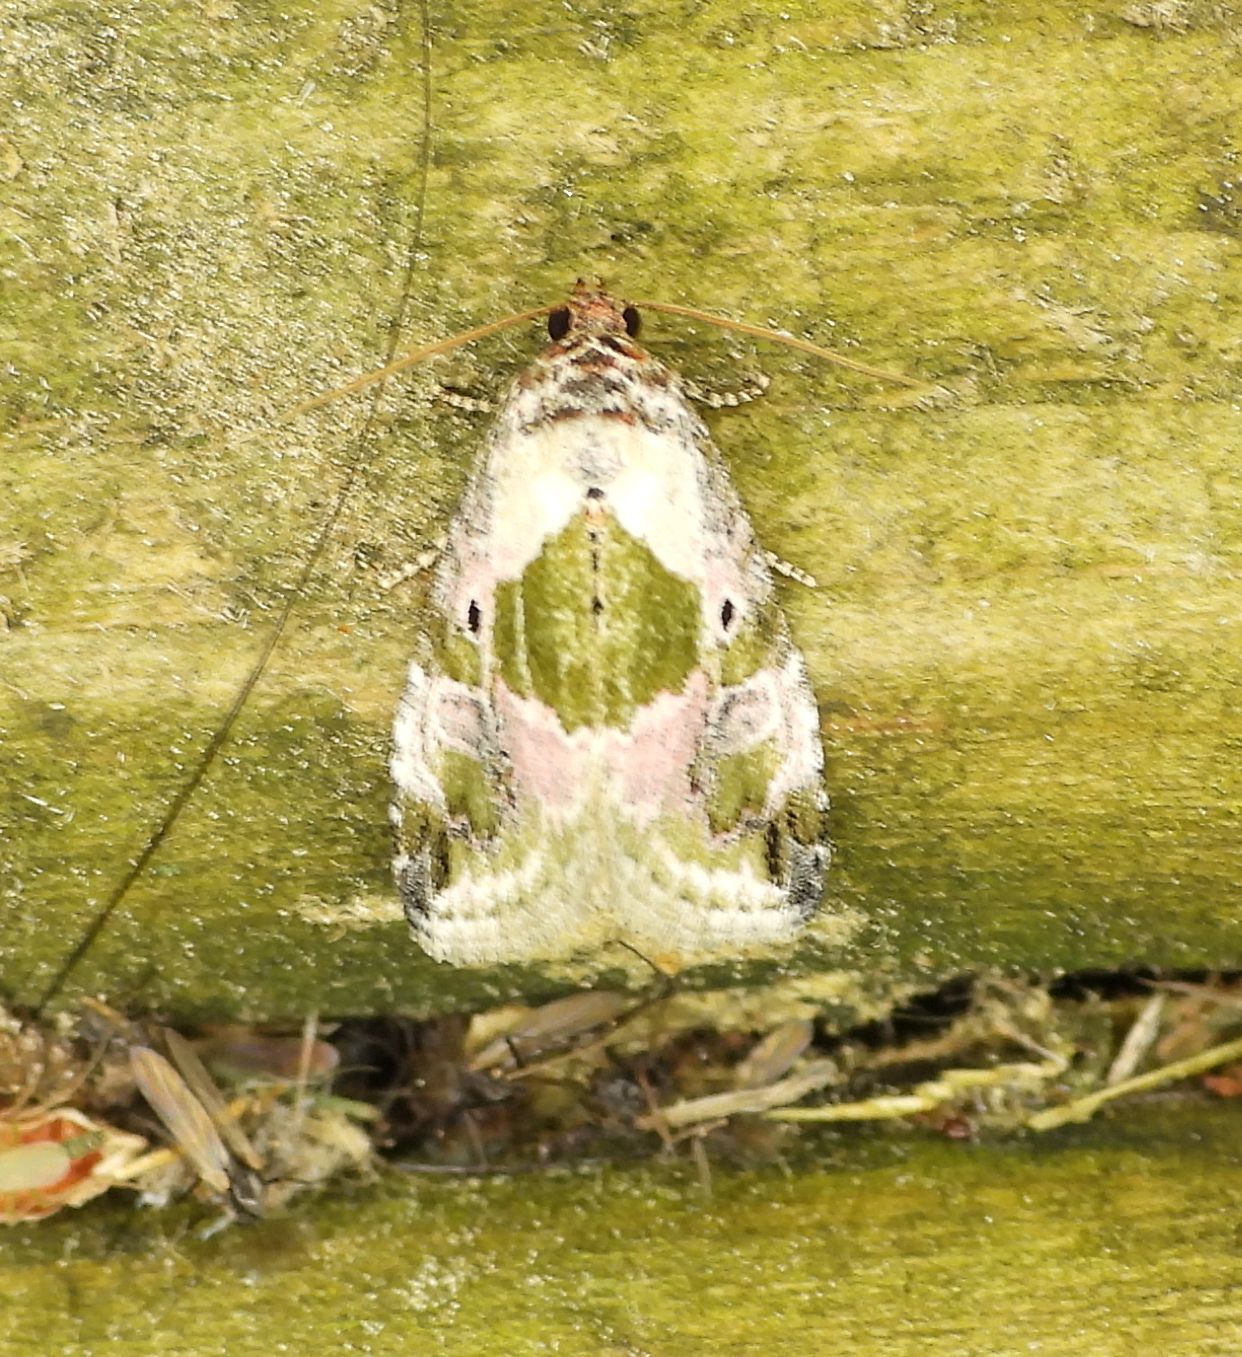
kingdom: Animalia
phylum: Arthropoda
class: Insecta
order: Lepidoptera
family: Noctuidae
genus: Maliattha
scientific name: Maliattha synochitis
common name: Black-dotted glyph
